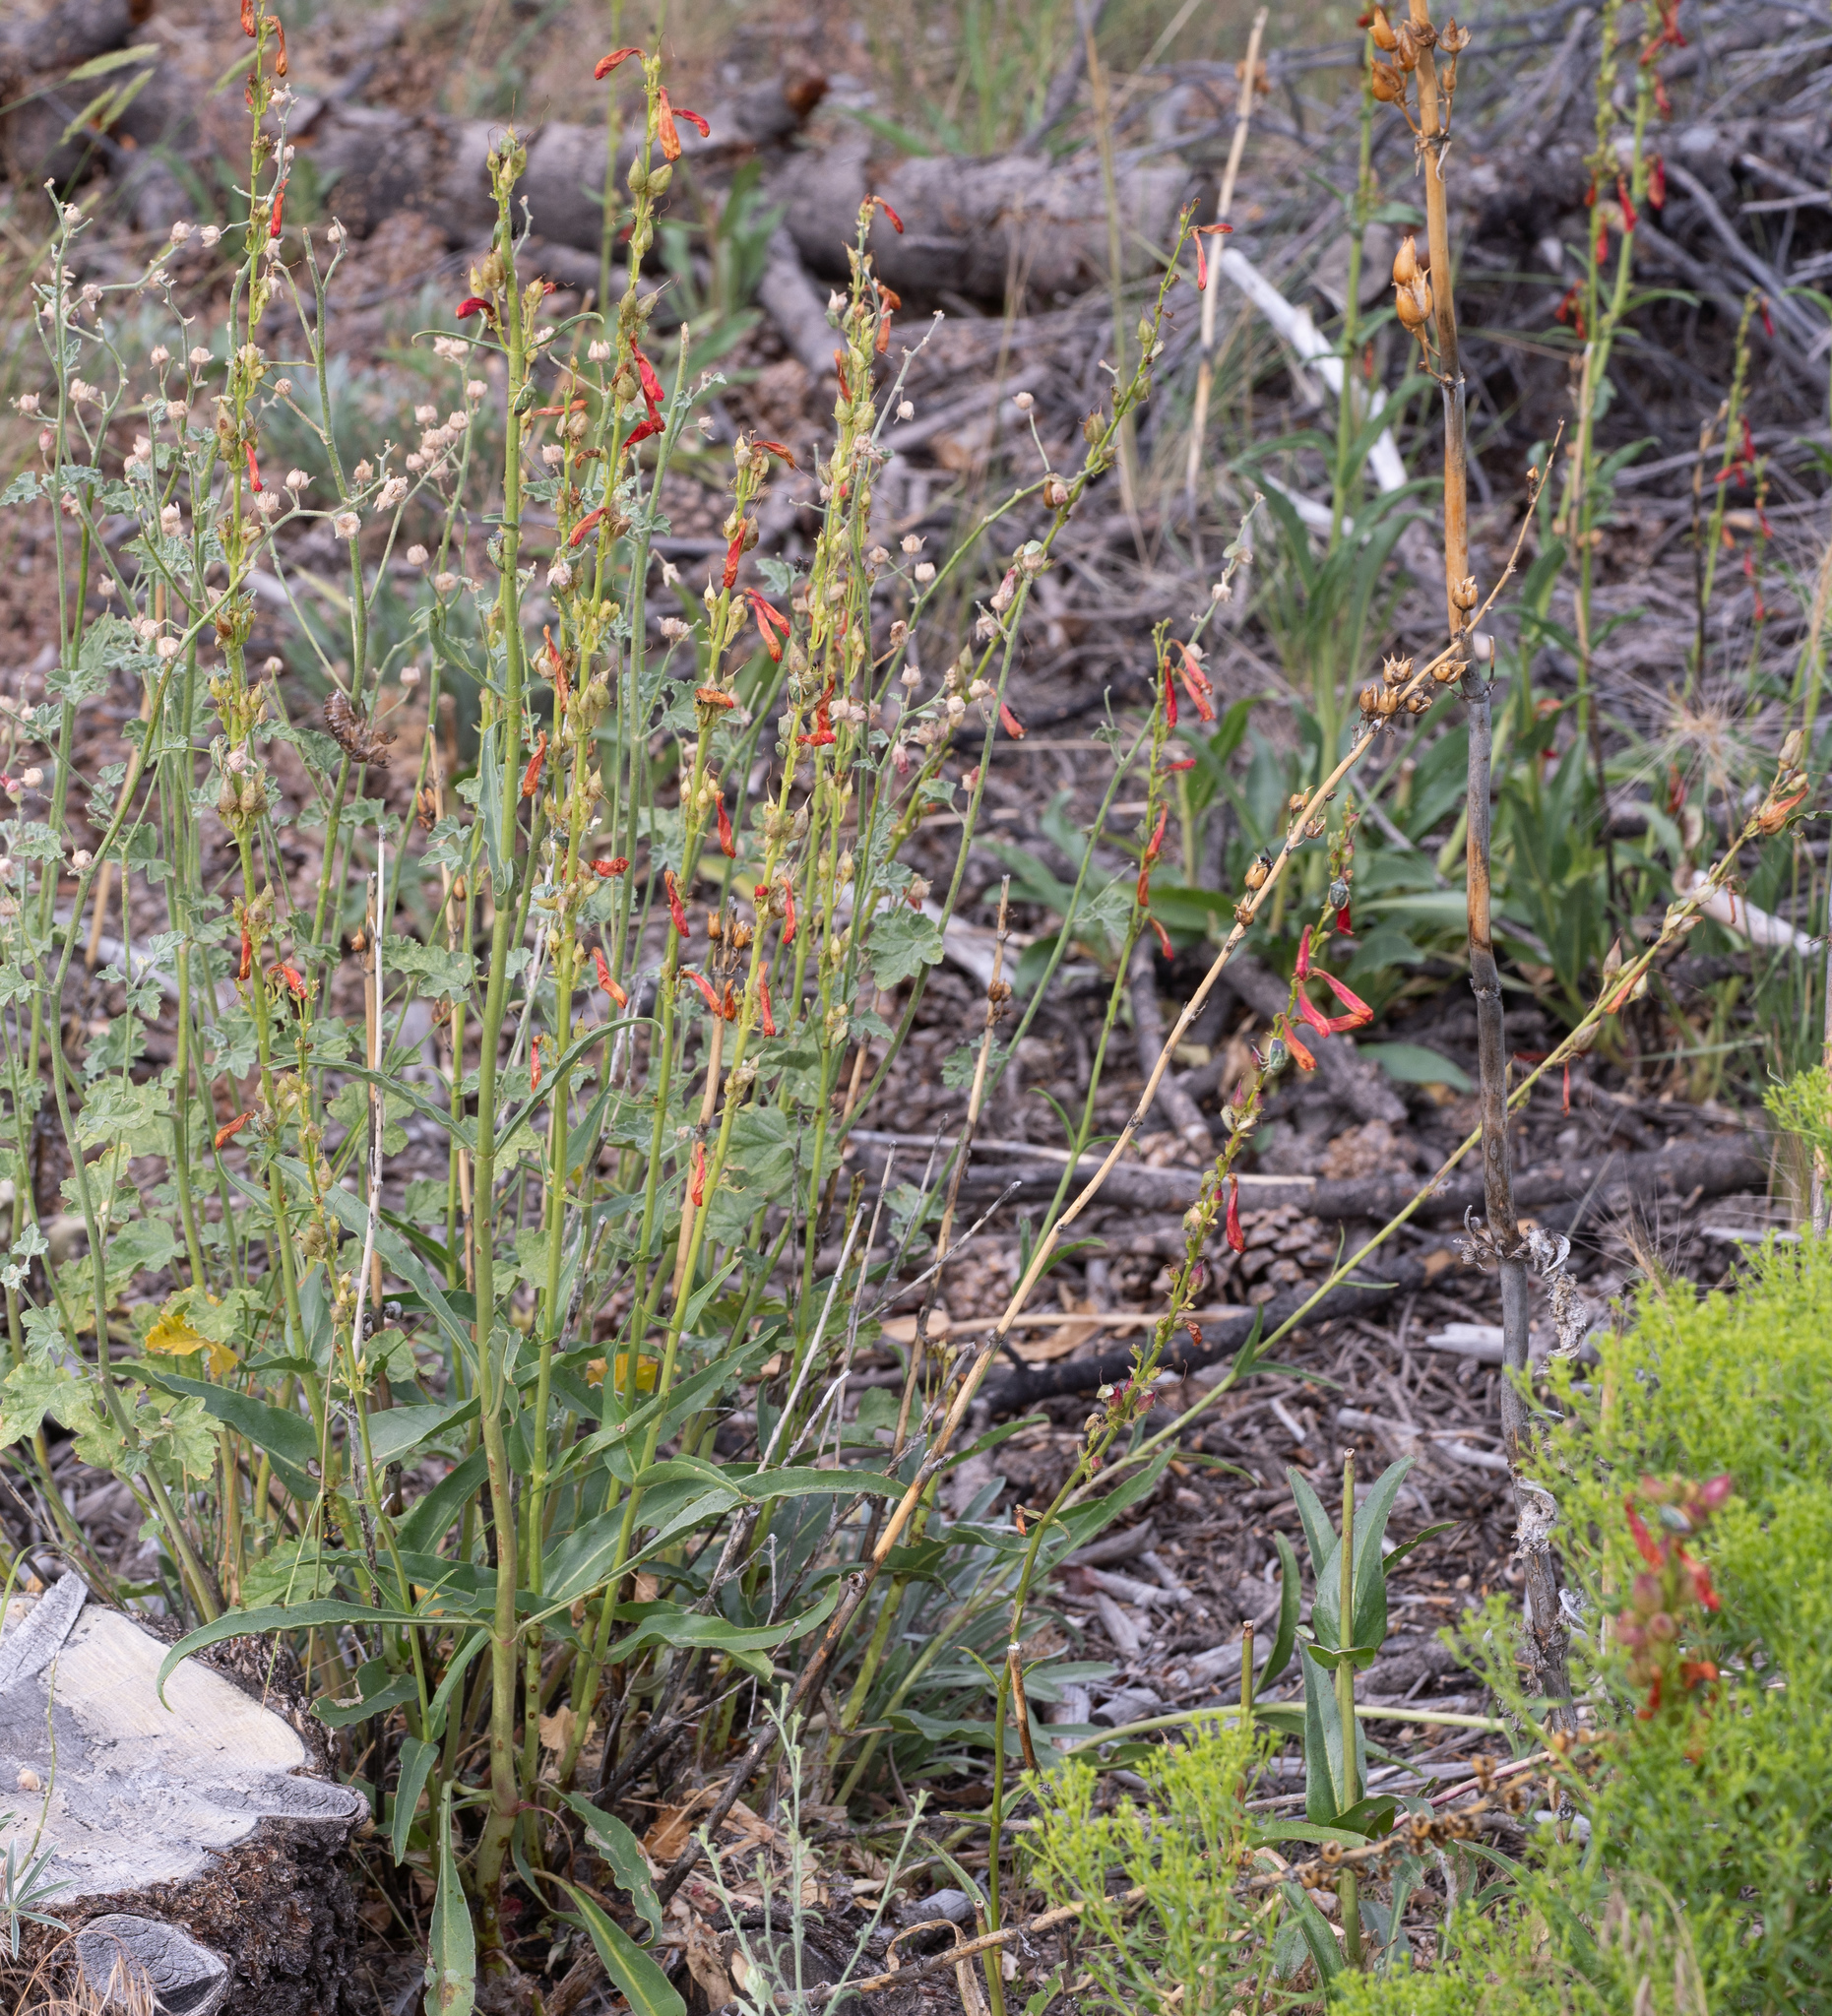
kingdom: Plantae
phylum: Tracheophyta
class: Magnoliopsida
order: Lamiales
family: Plantaginaceae
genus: Penstemon
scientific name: Penstemon eatonii
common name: Eaton's penstemon
